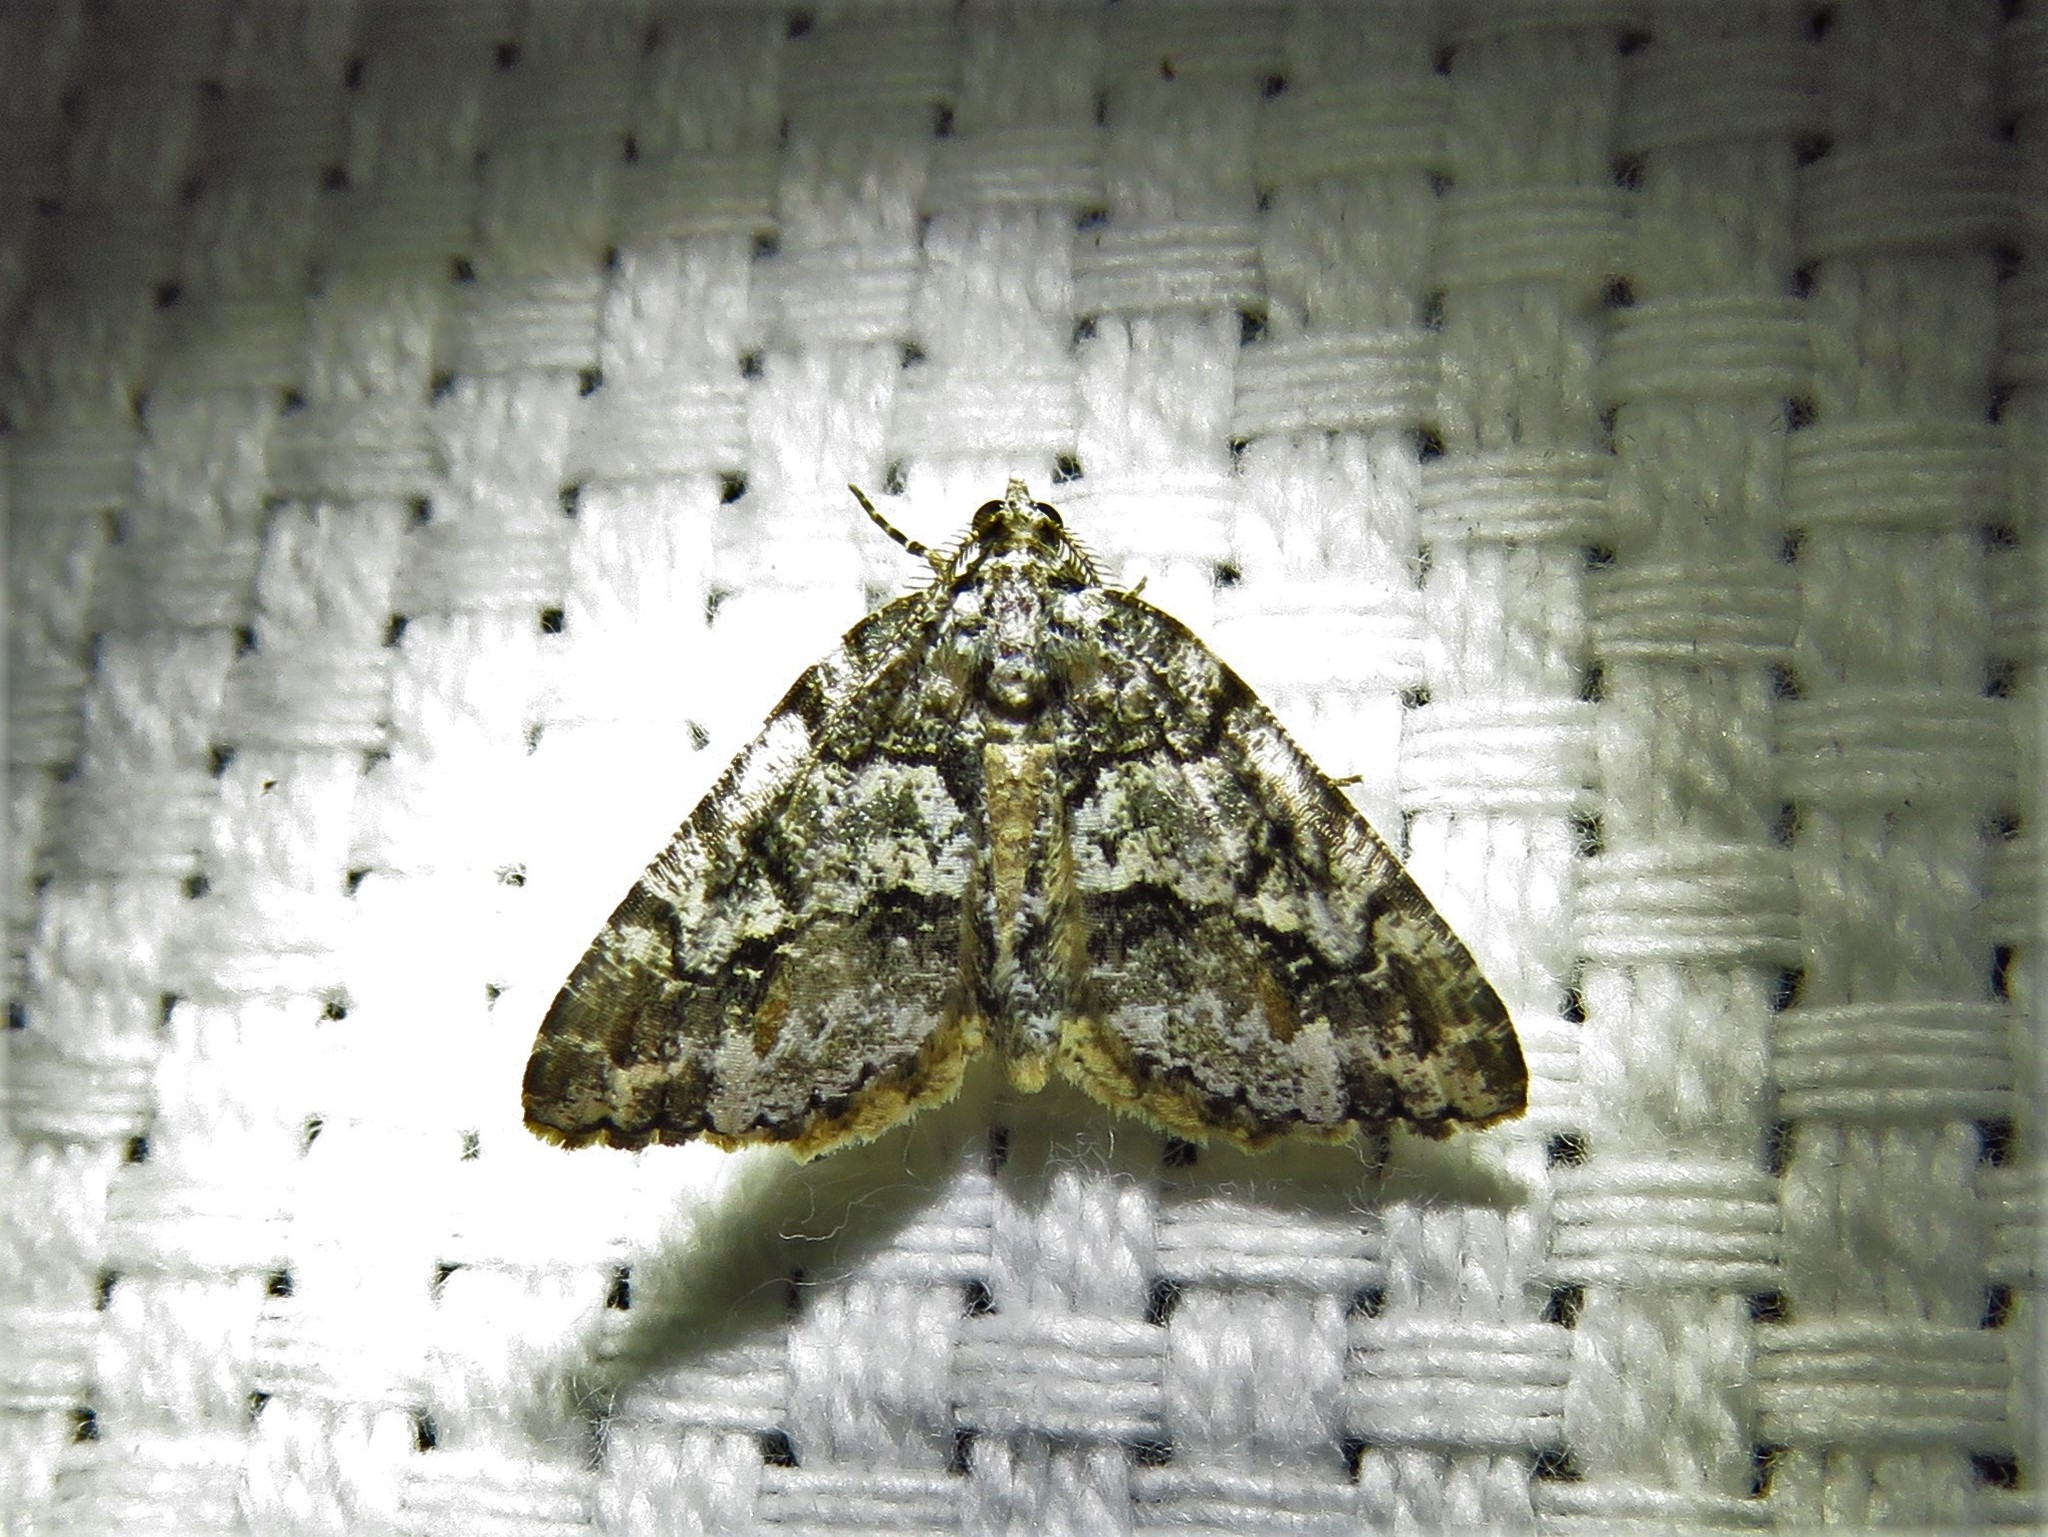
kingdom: Animalia
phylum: Arthropoda
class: Insecta
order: Lepidoptera
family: Geometridae
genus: Macaria
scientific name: Macaria graphidaria
